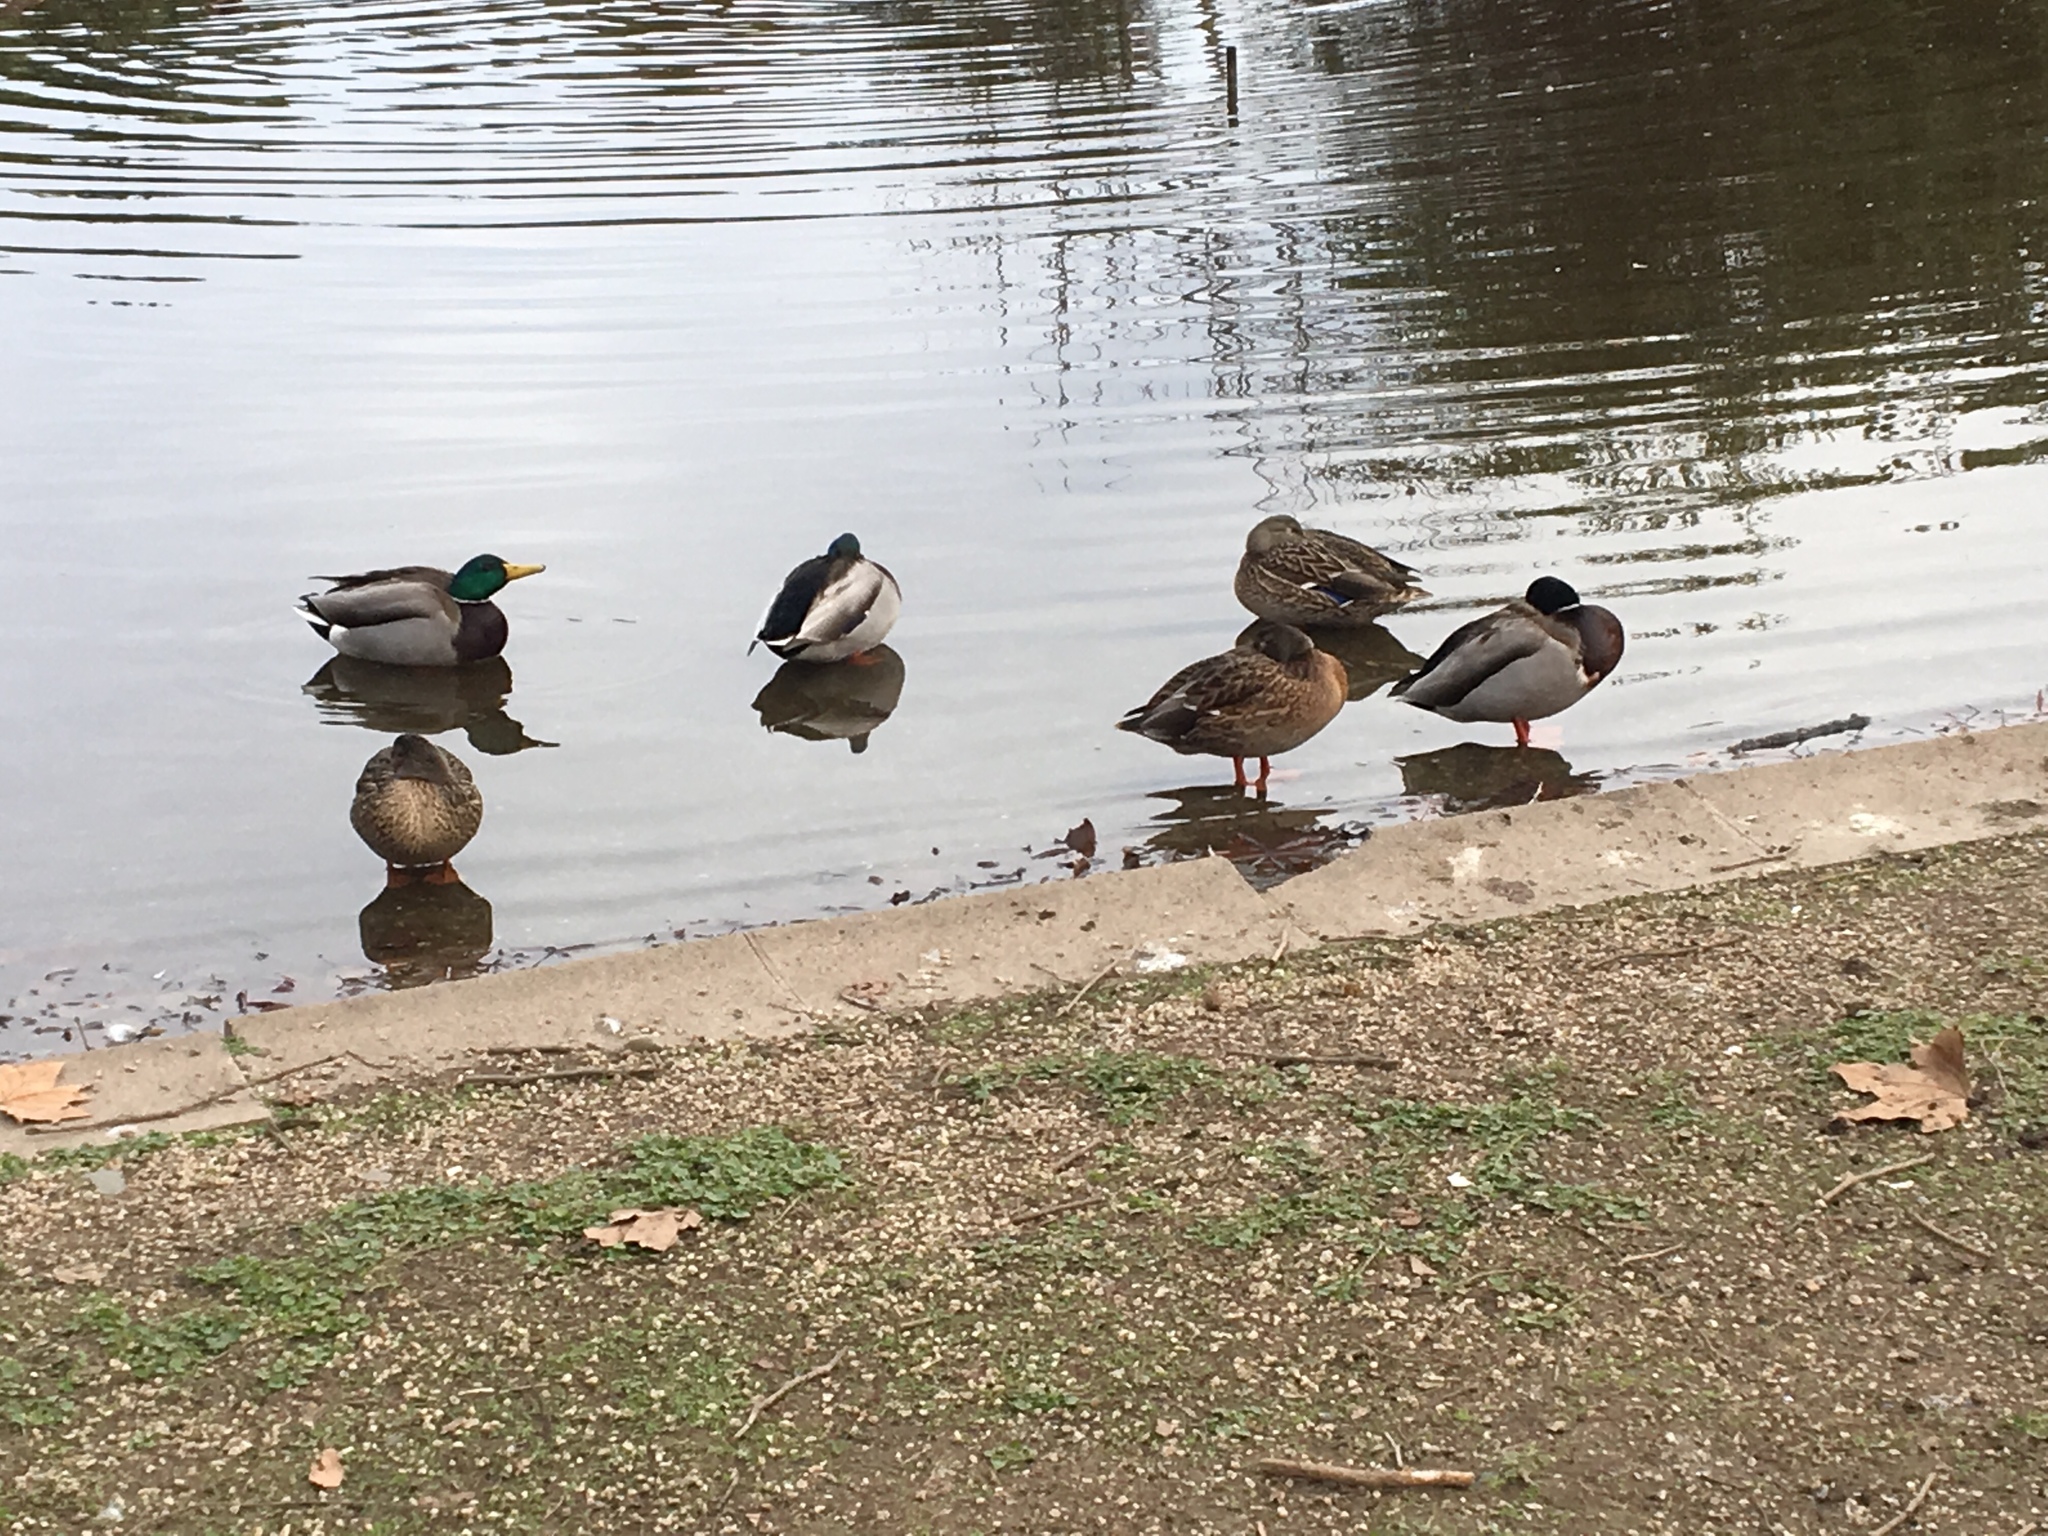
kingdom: Animalia
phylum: Chordata
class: Aves
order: Anseriformes
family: Anatidae
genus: Anas
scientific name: Anas platyrhynchos
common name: Mallard
